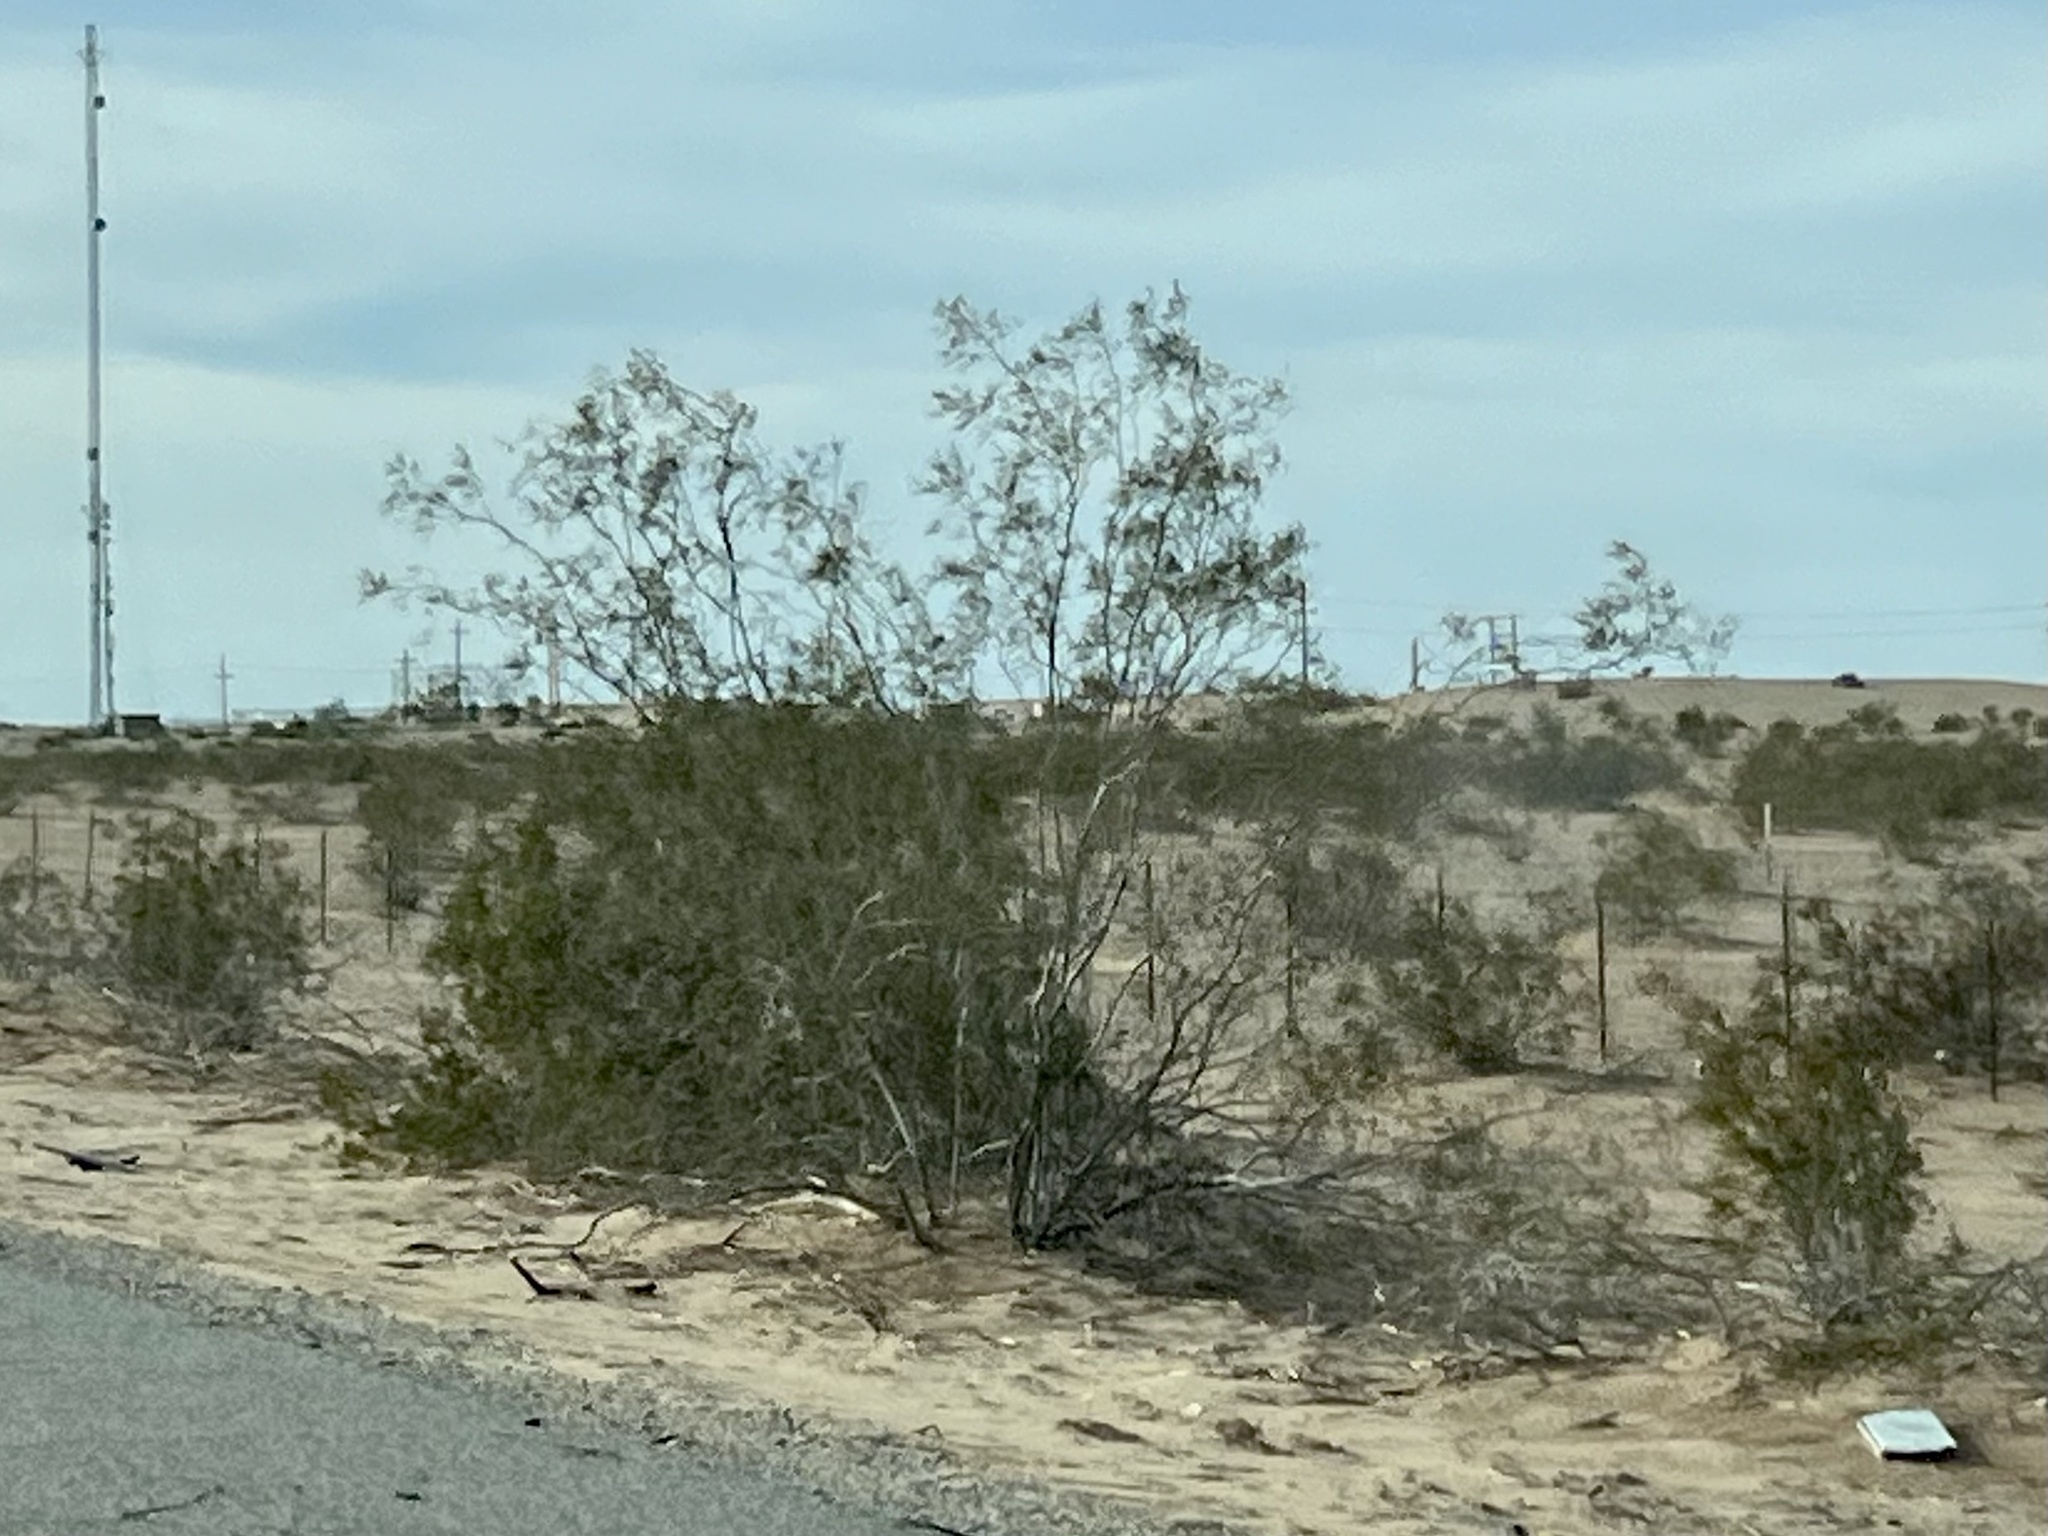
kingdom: Plantae
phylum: Tracheophyta
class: Magnoliopsida
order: Zygophyllales
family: Zygophyllaceae
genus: Larrea
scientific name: Larrea tridentata
